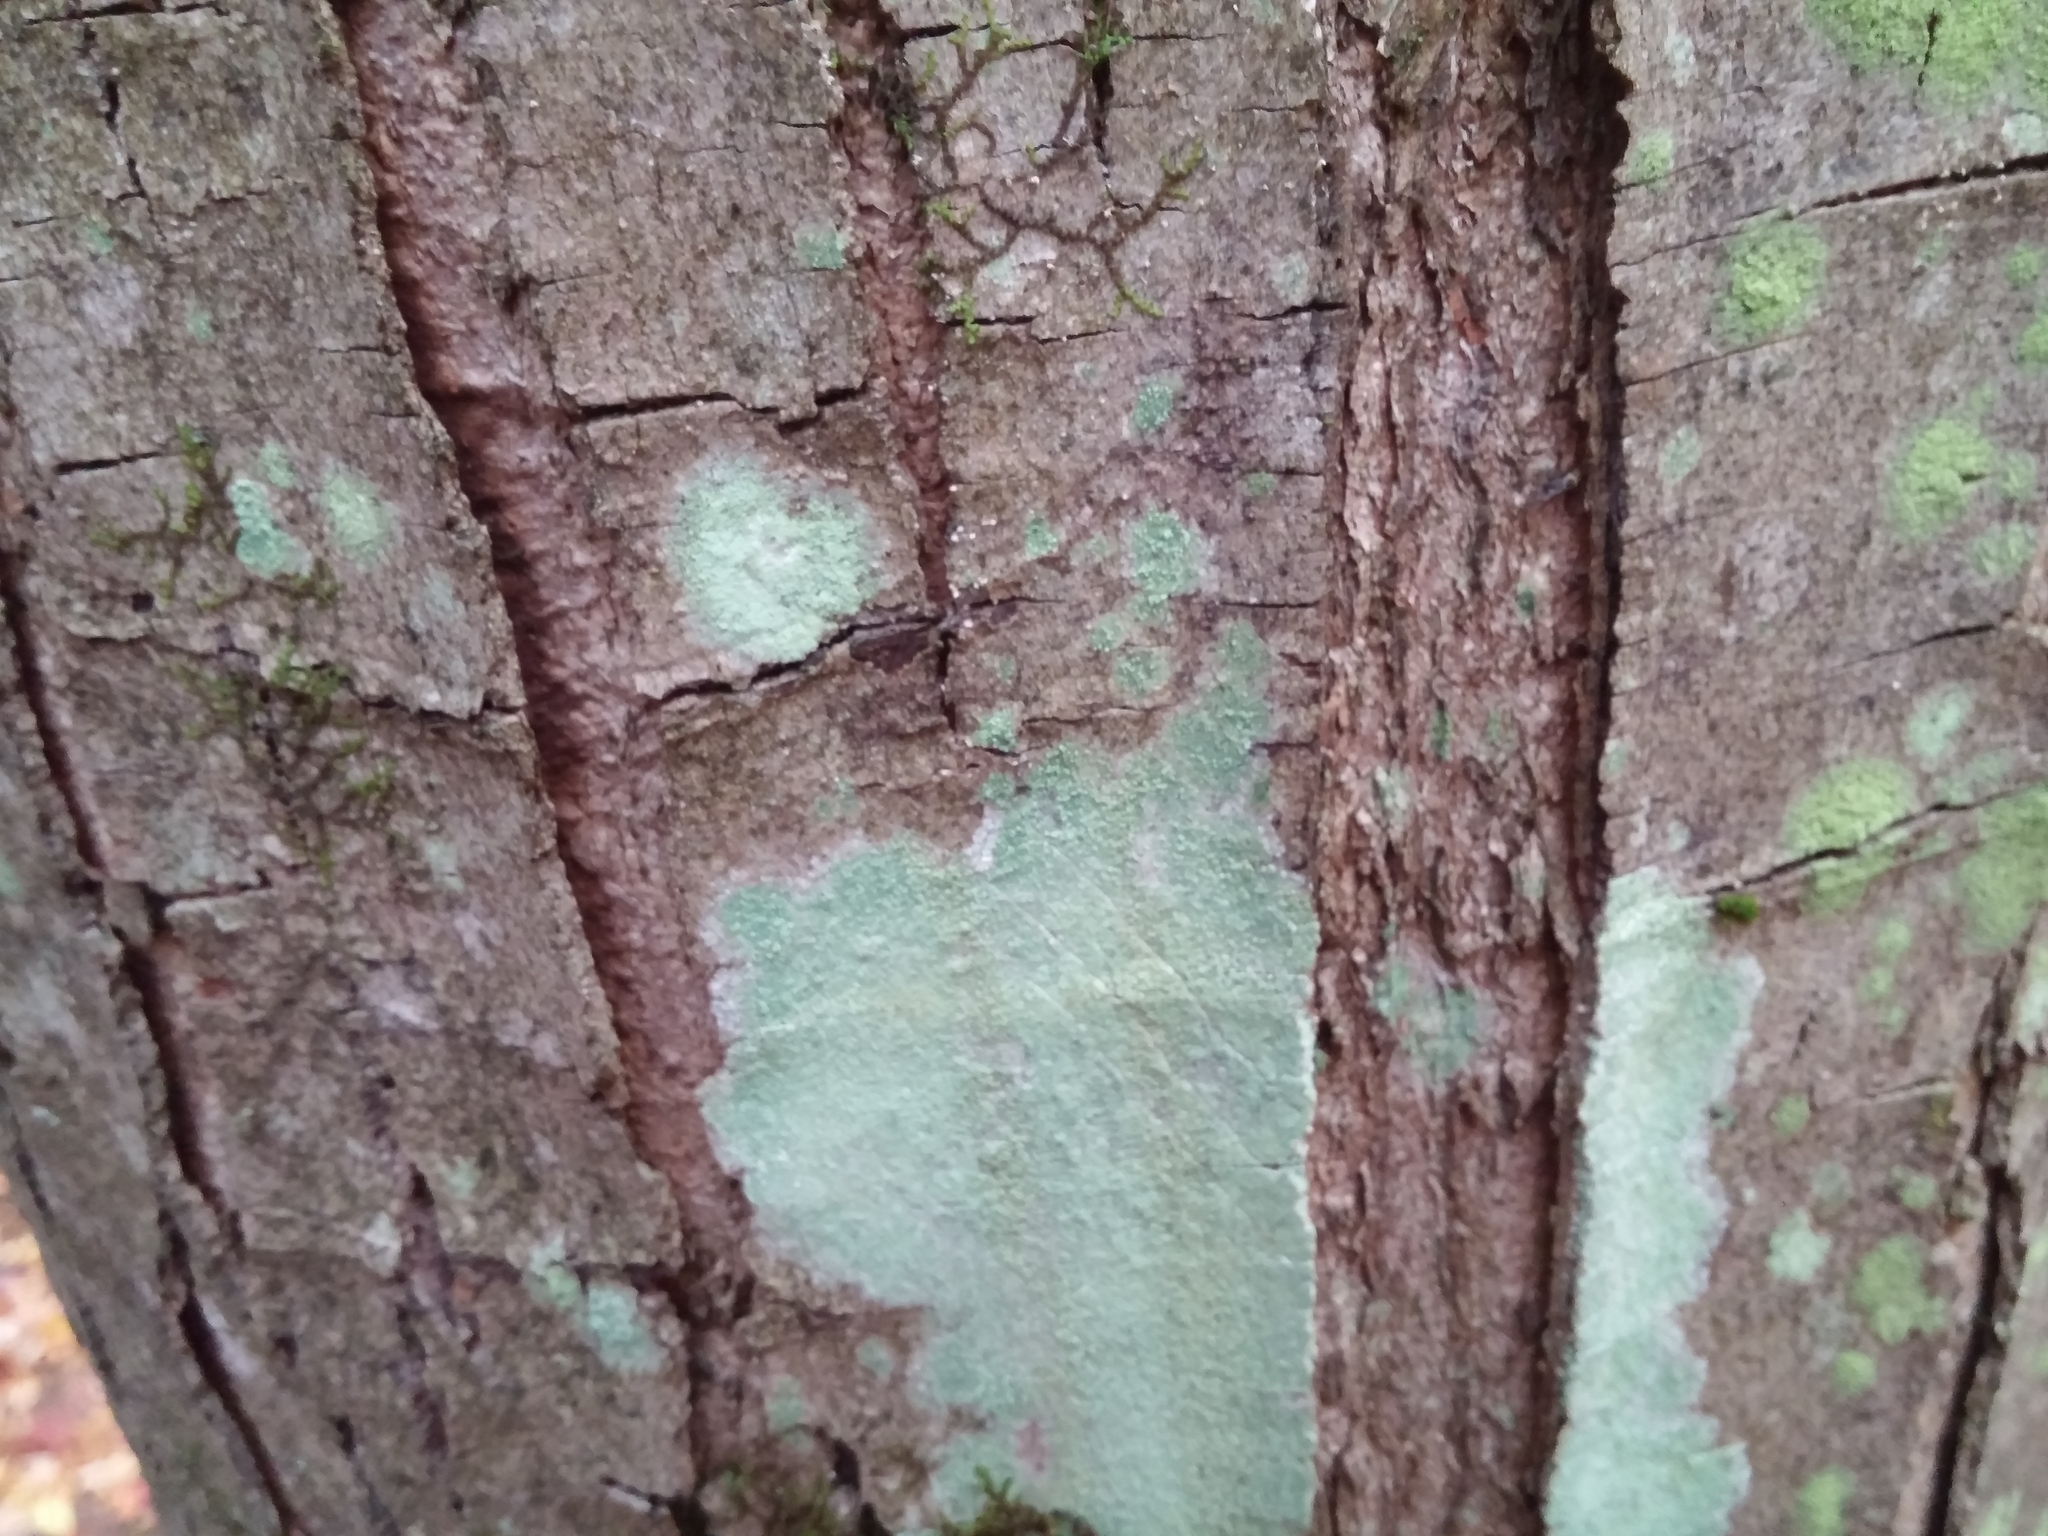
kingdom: Fungi
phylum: Ascomycota
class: Lecanoromycetes
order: Pertusariales
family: Pertusariaceae
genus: Verseghya
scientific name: Verseghya thysanophora
